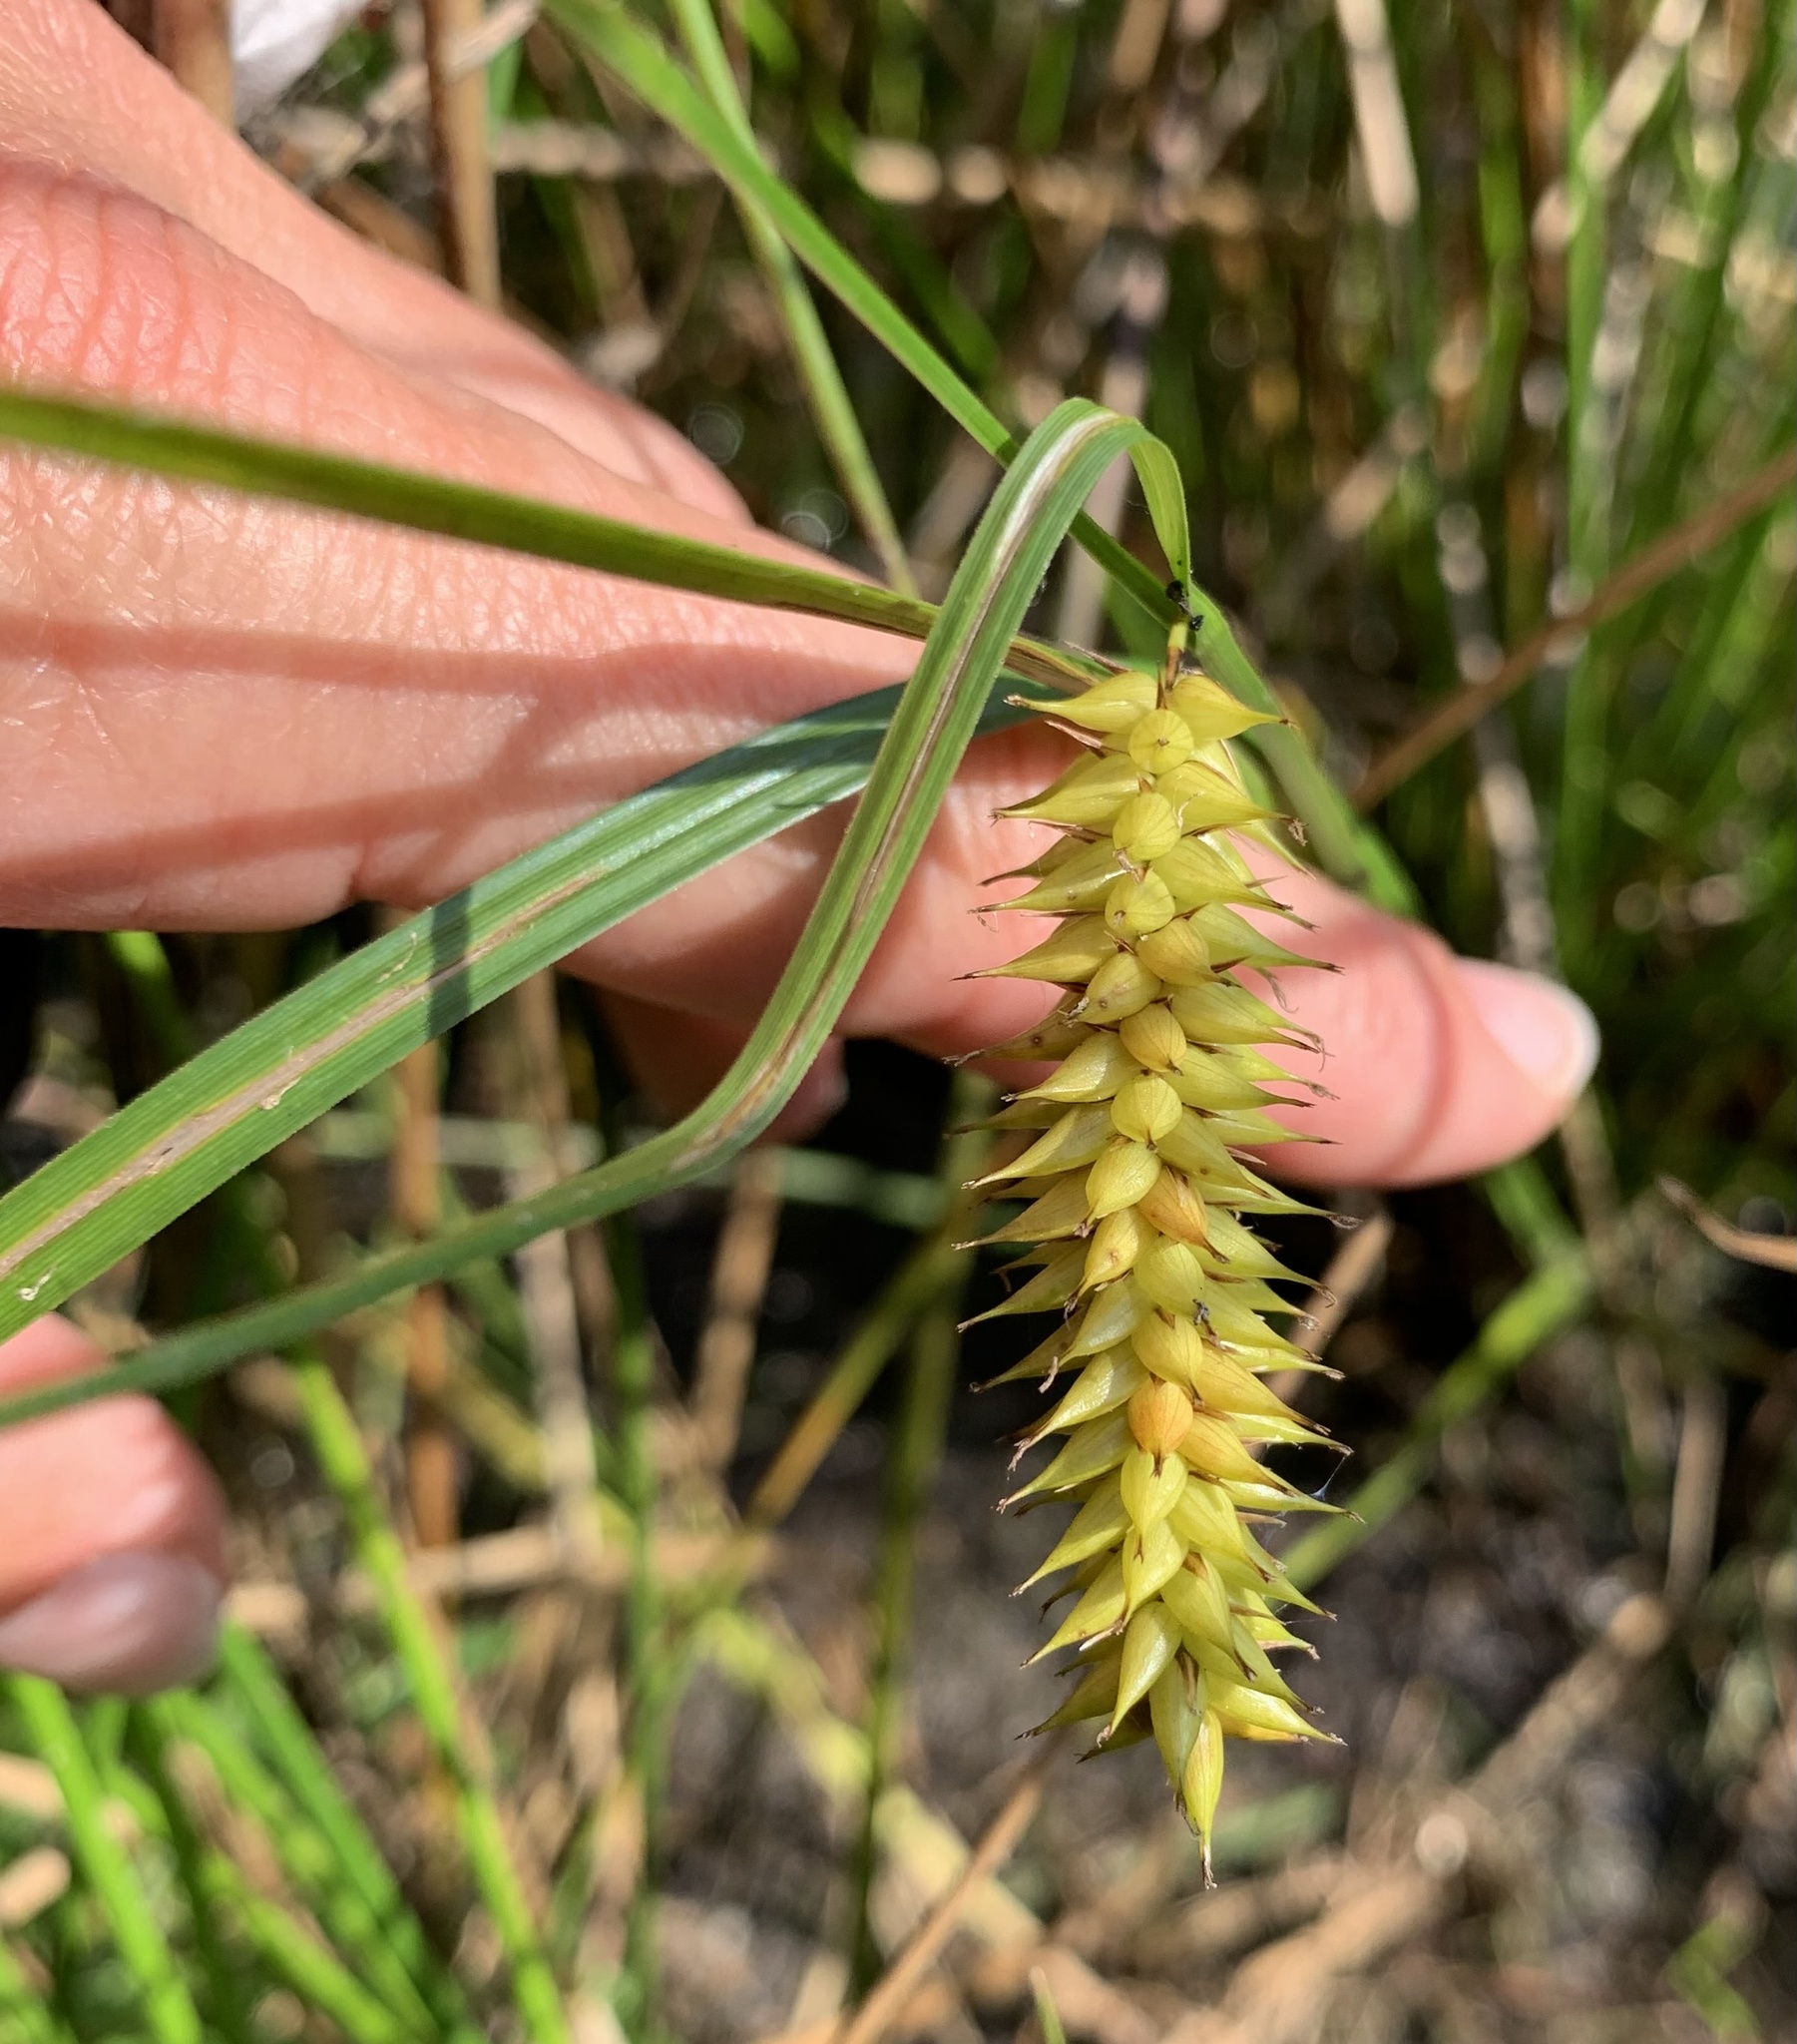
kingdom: Plantae
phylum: Tracheophyta
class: Liliopsida
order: Poales
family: Cyperaceae
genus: Carex
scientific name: Carex vesicaria
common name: Bladder-sedge
